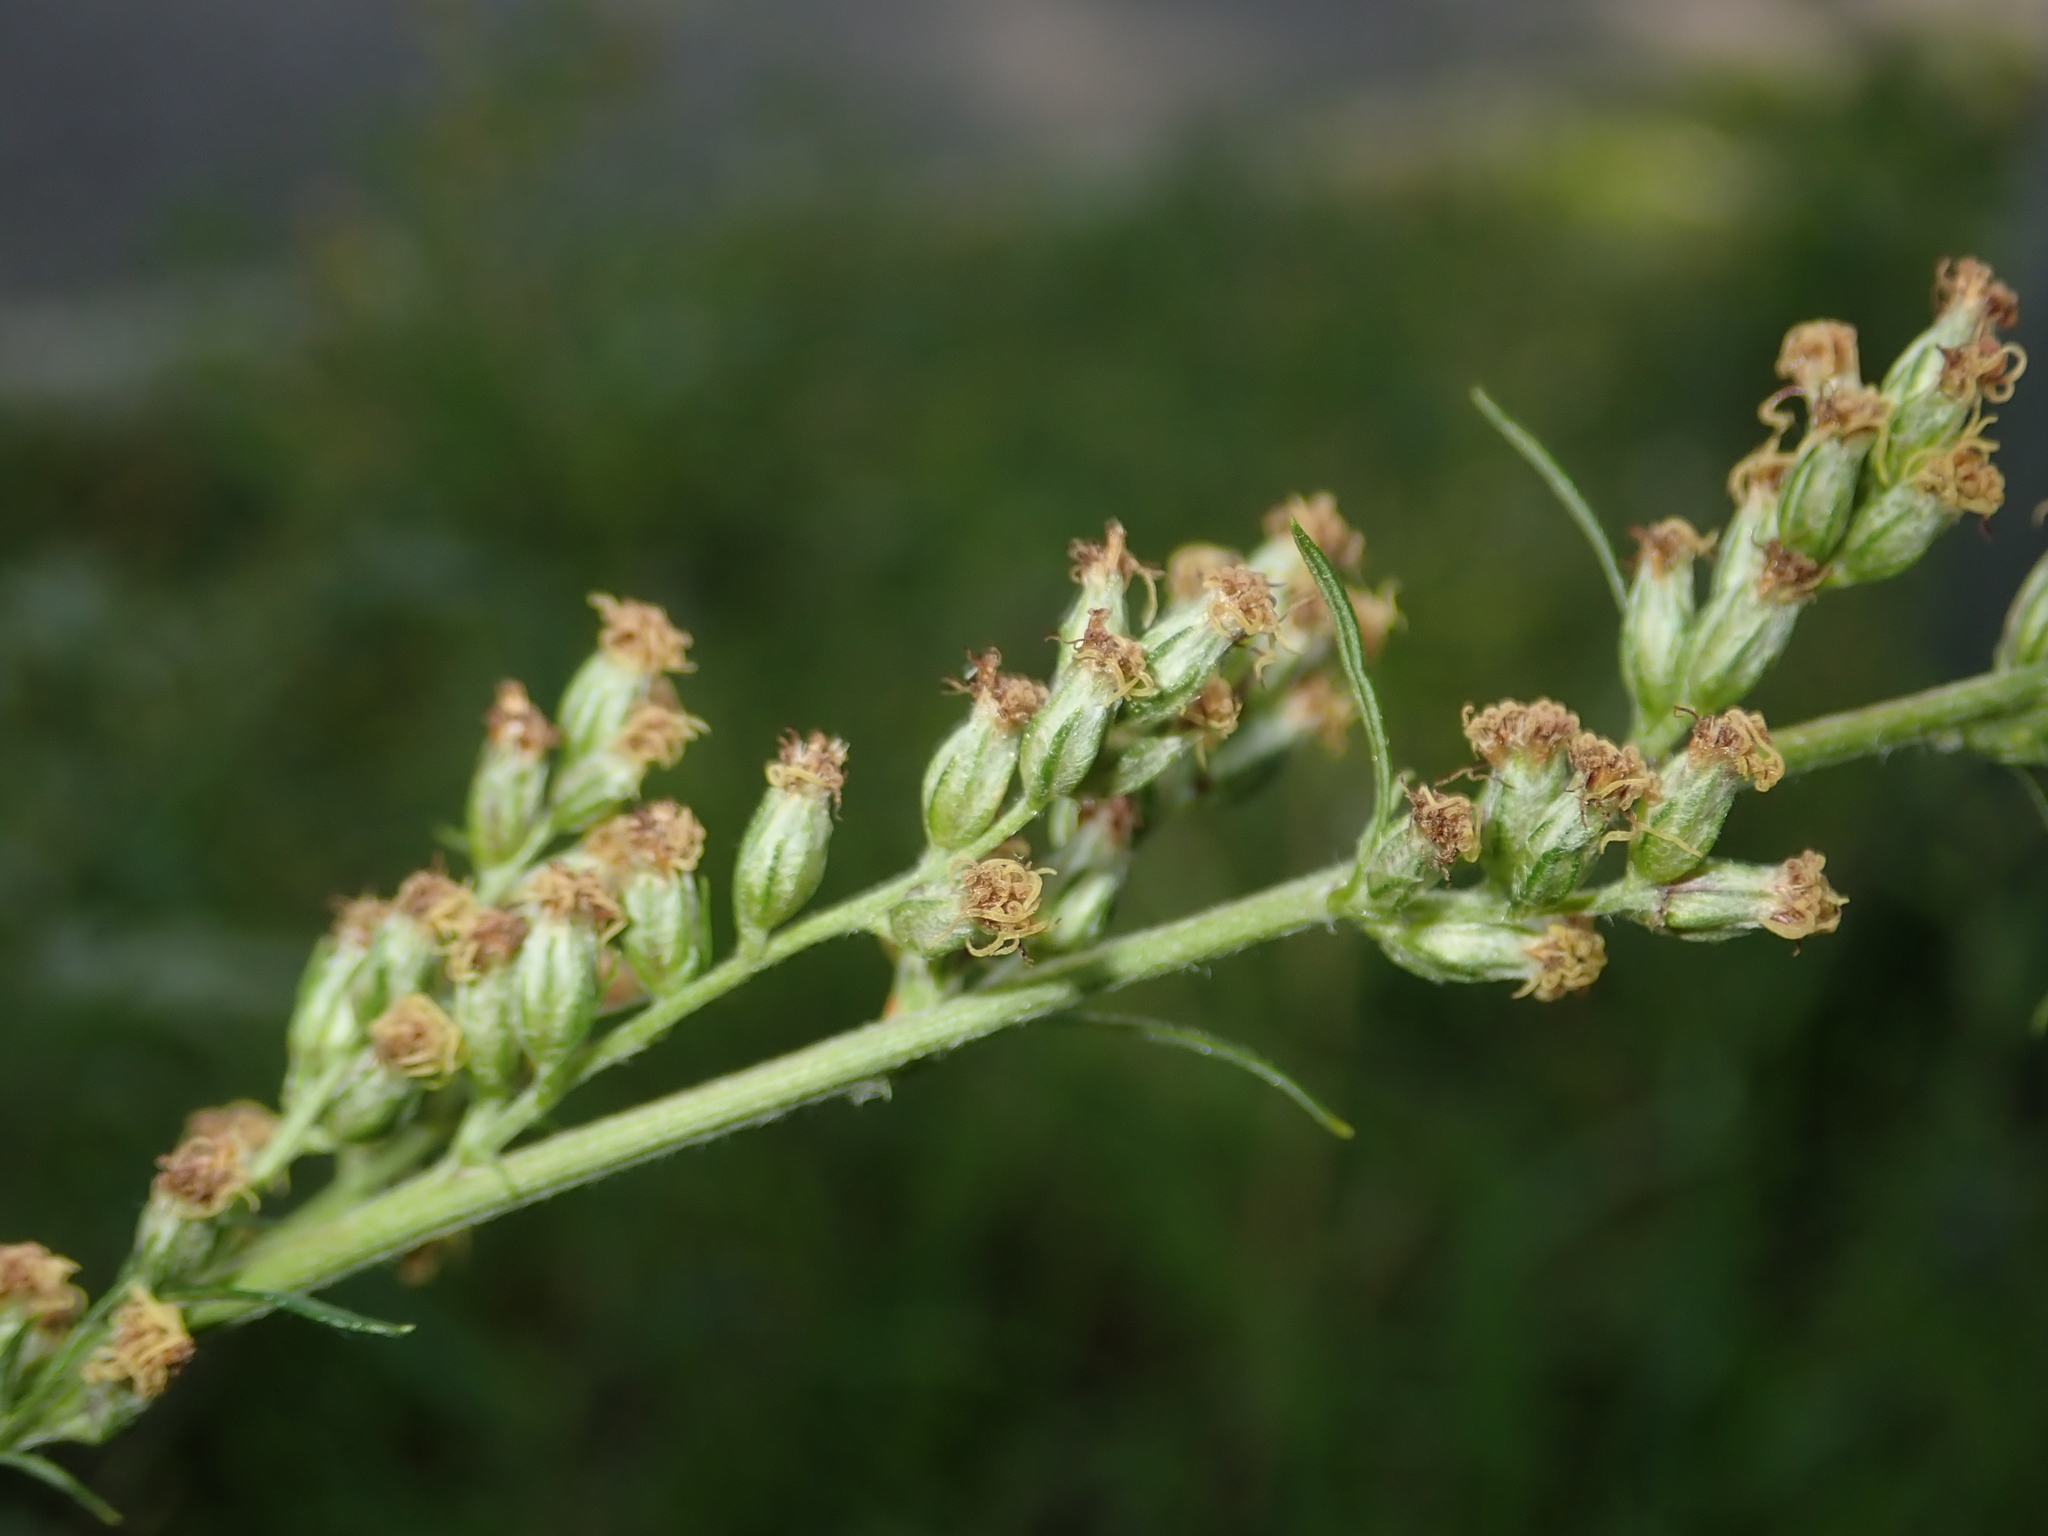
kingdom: Plantae
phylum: Tracheophyta
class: Magnoliopsida
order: Asterales
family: Asteraceae
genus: Artemisia
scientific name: Artemisia vulgaris
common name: Mugwort
